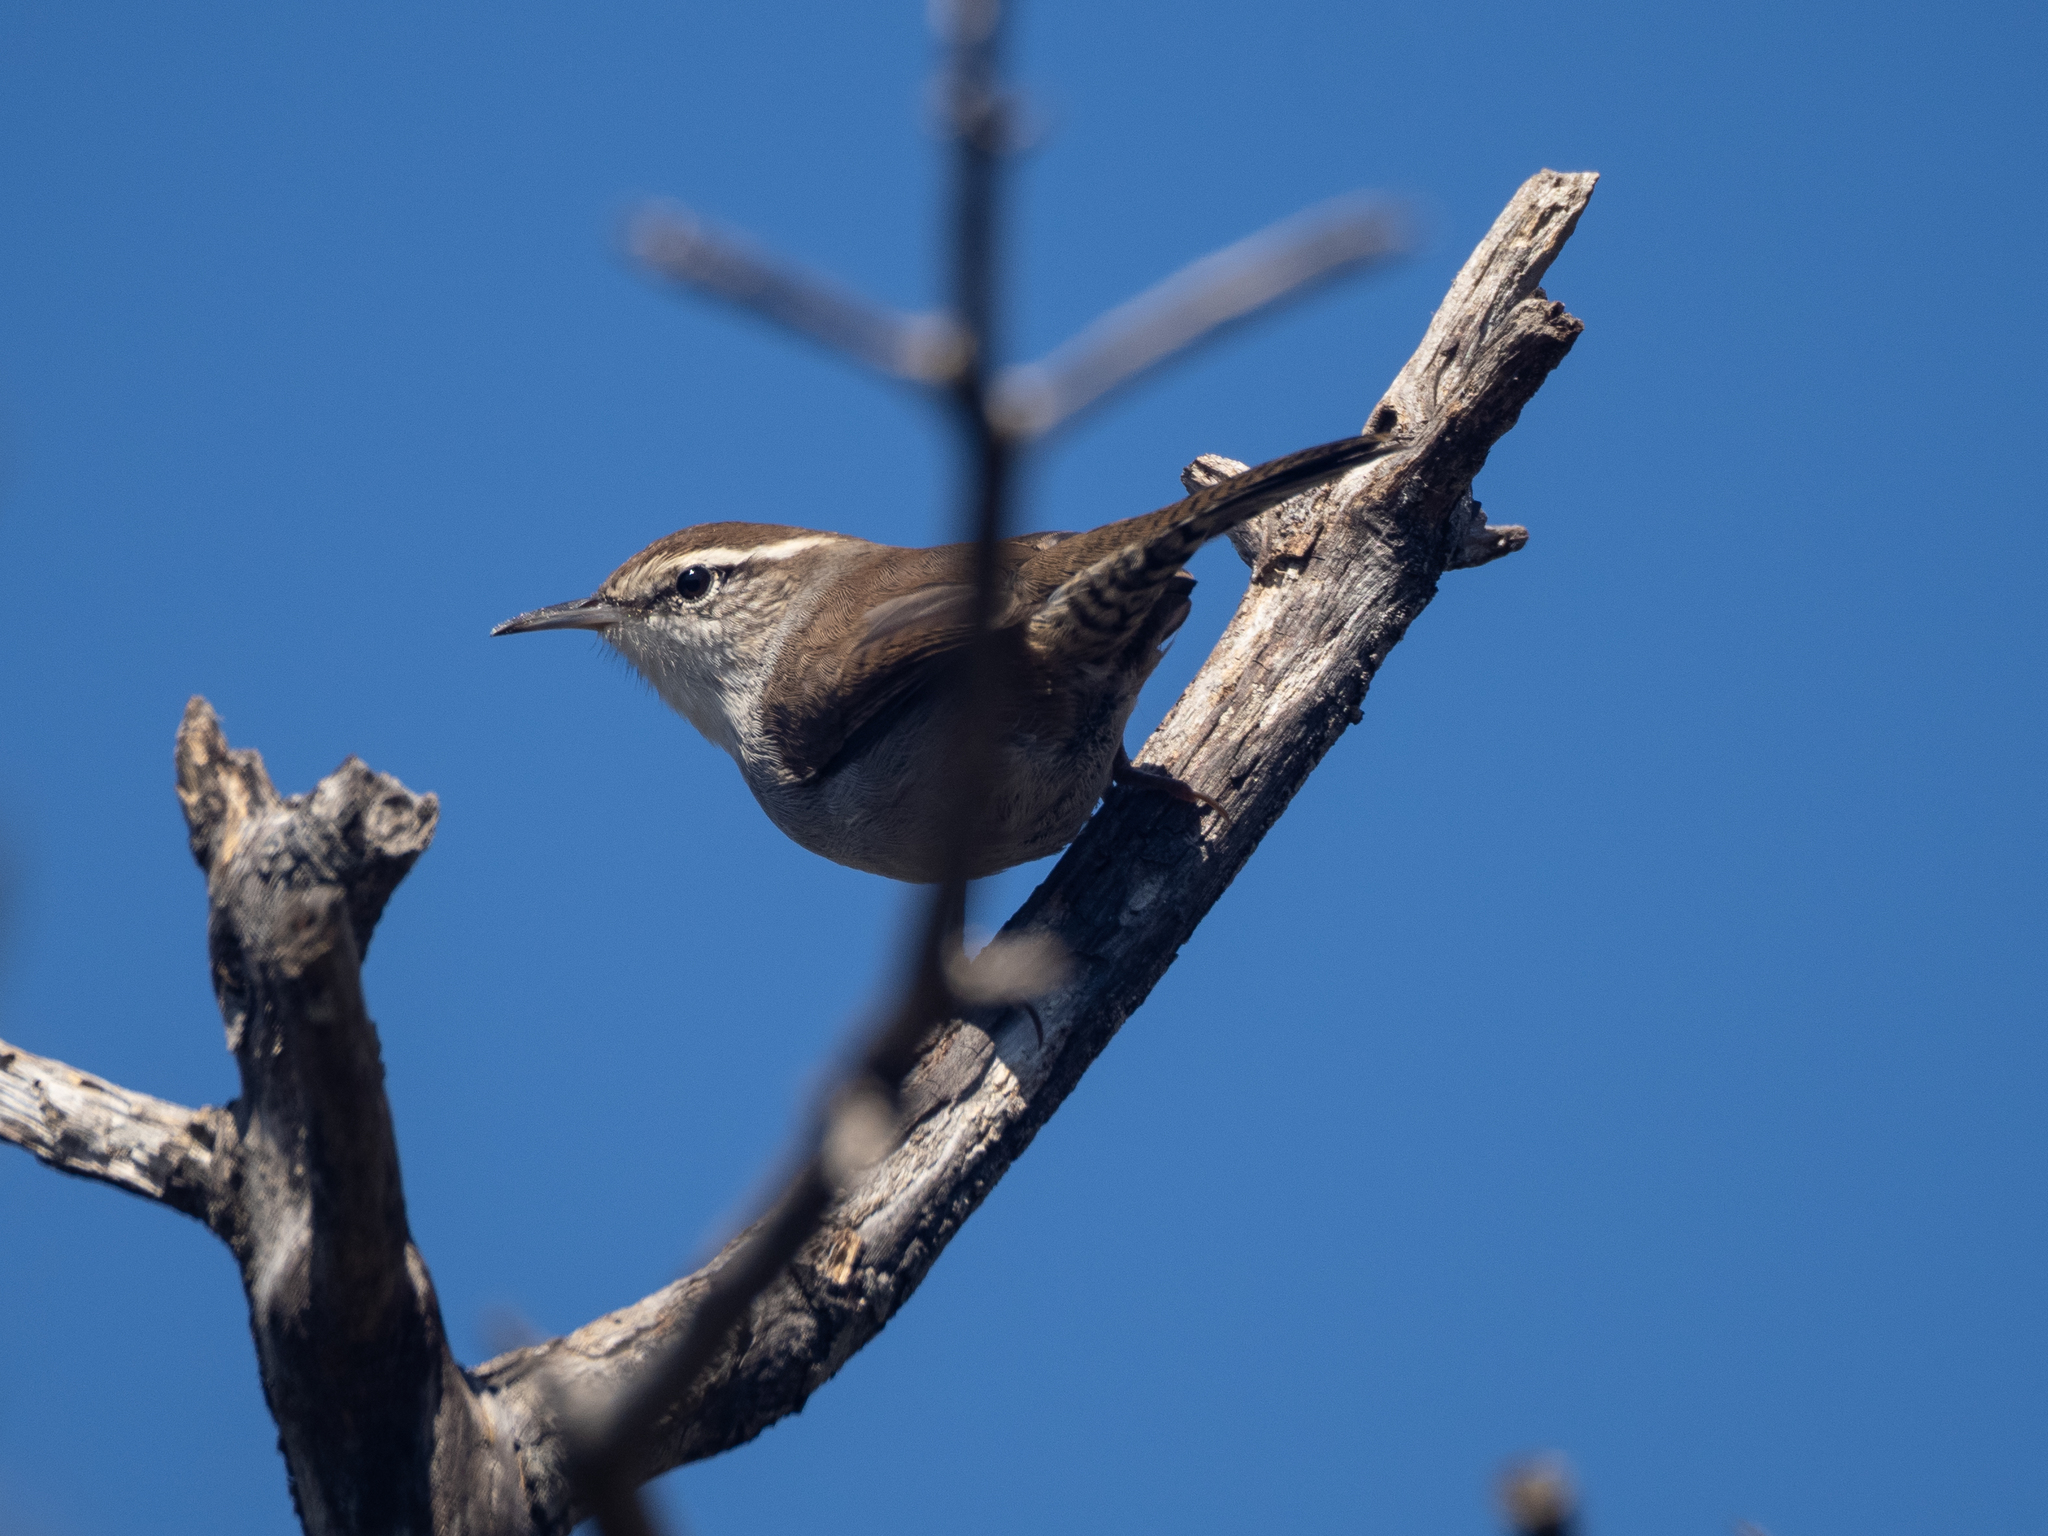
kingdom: Animalia
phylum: Chordata
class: Aves
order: Passeriformes
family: Troglodytidae
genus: Thryomanes
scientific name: Thryomanes bewickii
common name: Bewick's wren
